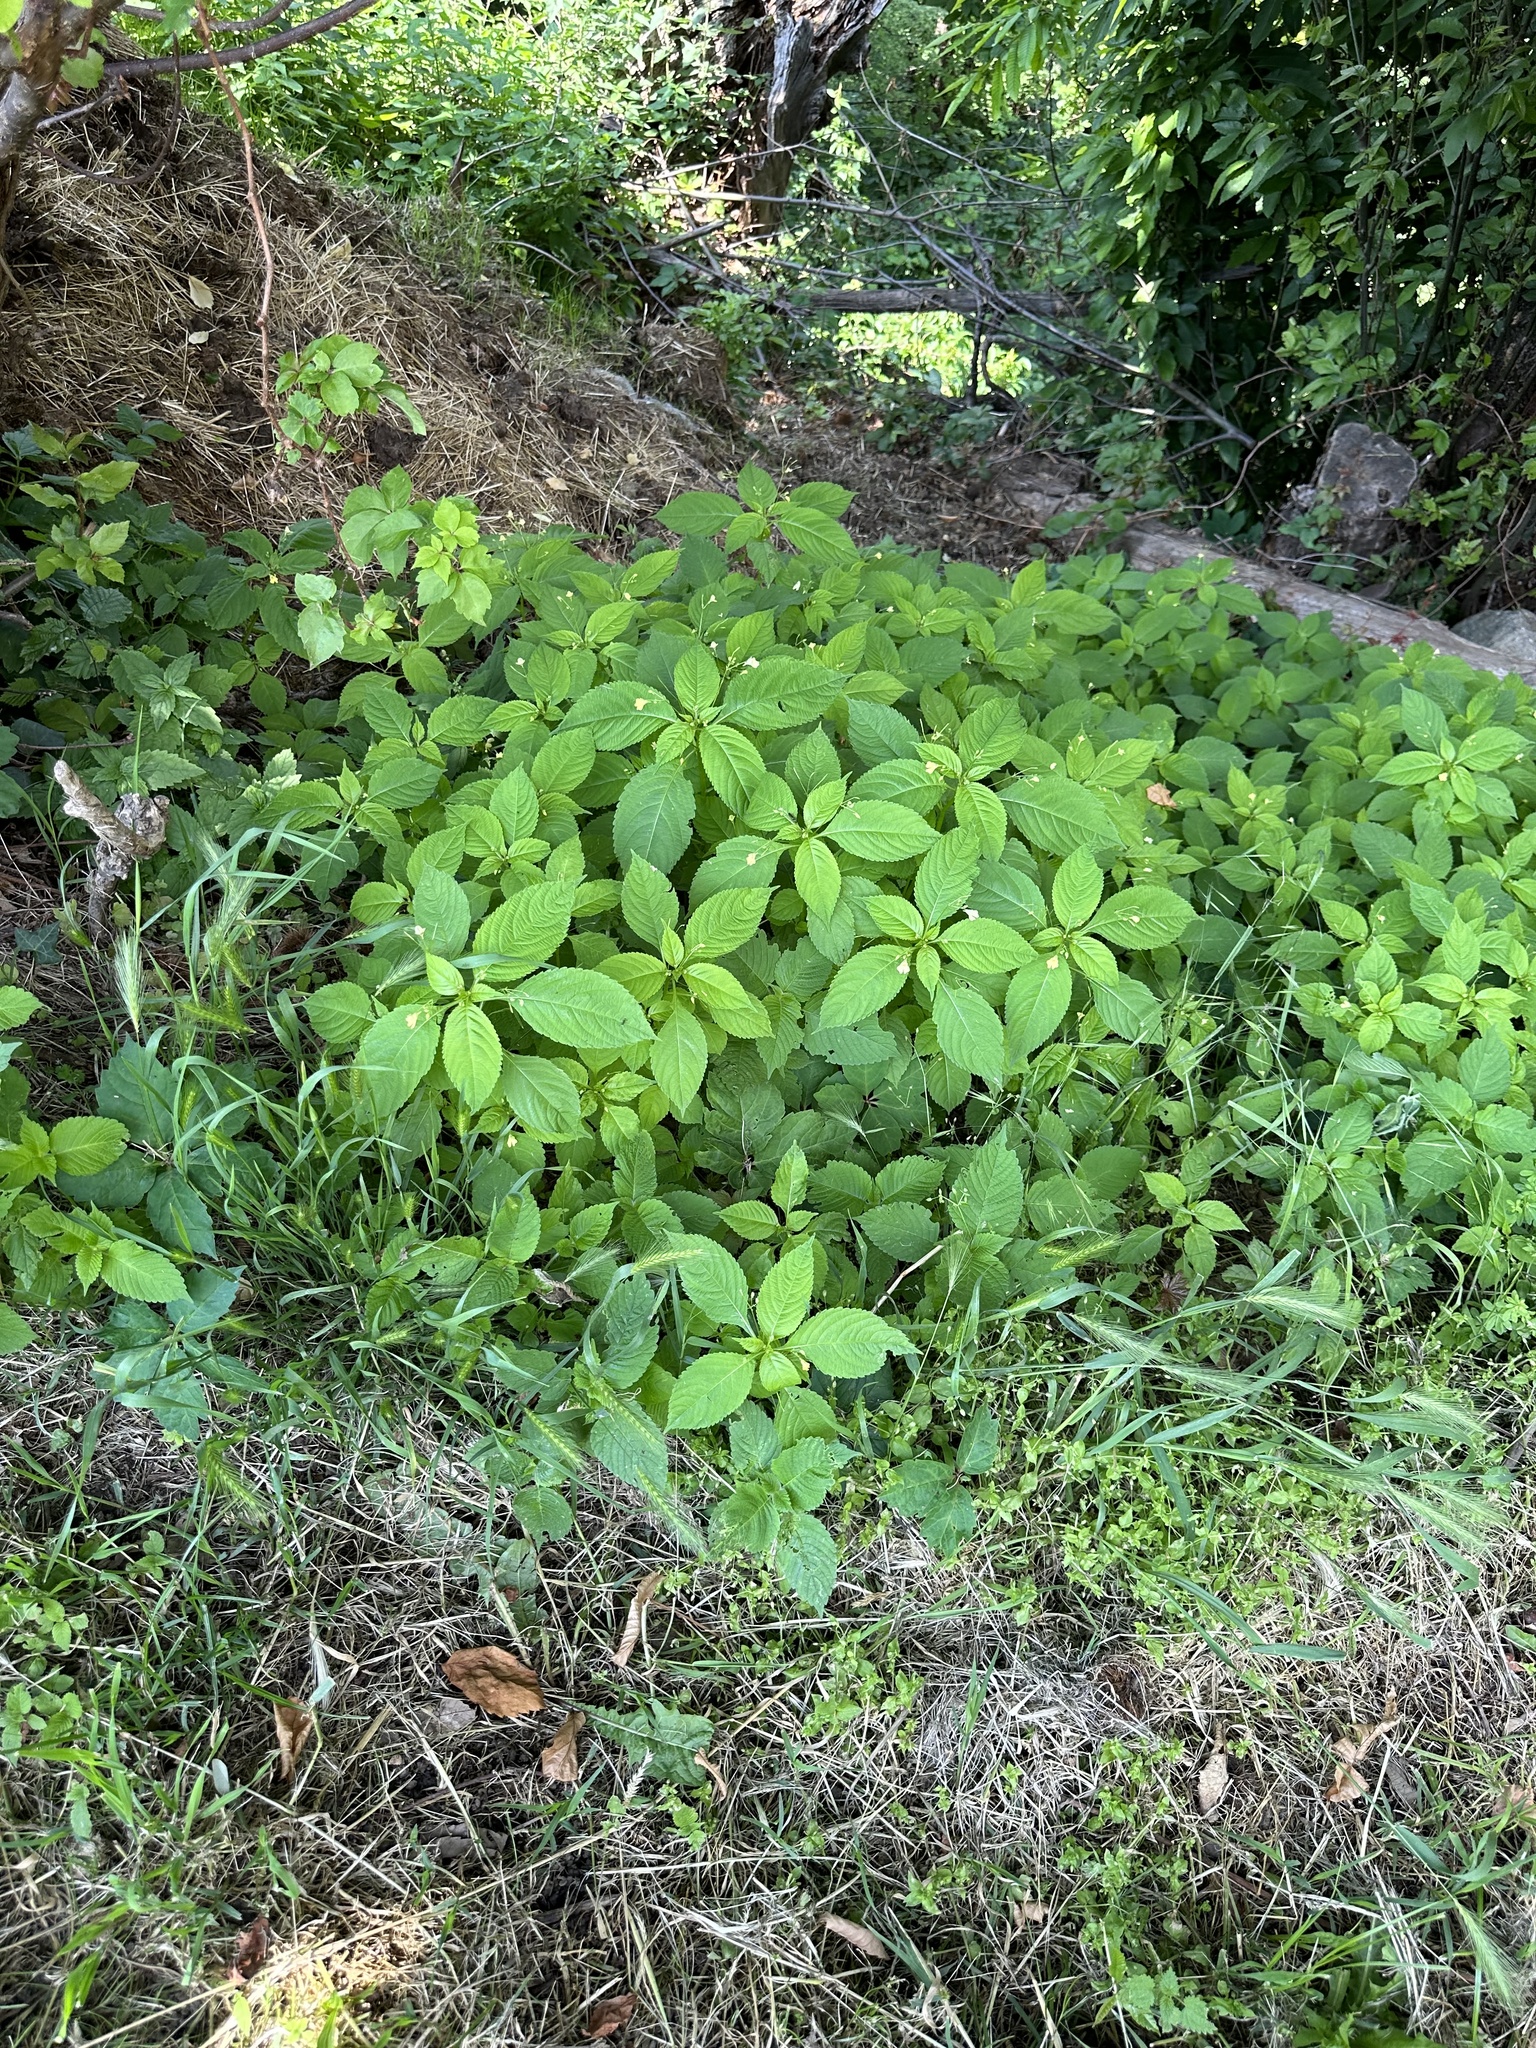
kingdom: Plantae
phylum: Tracheophyta
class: Magnoliopsida
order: Ericales
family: Balsaminaceae
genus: Impatiens
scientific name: Impatiens parviflora
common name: Small balsam
